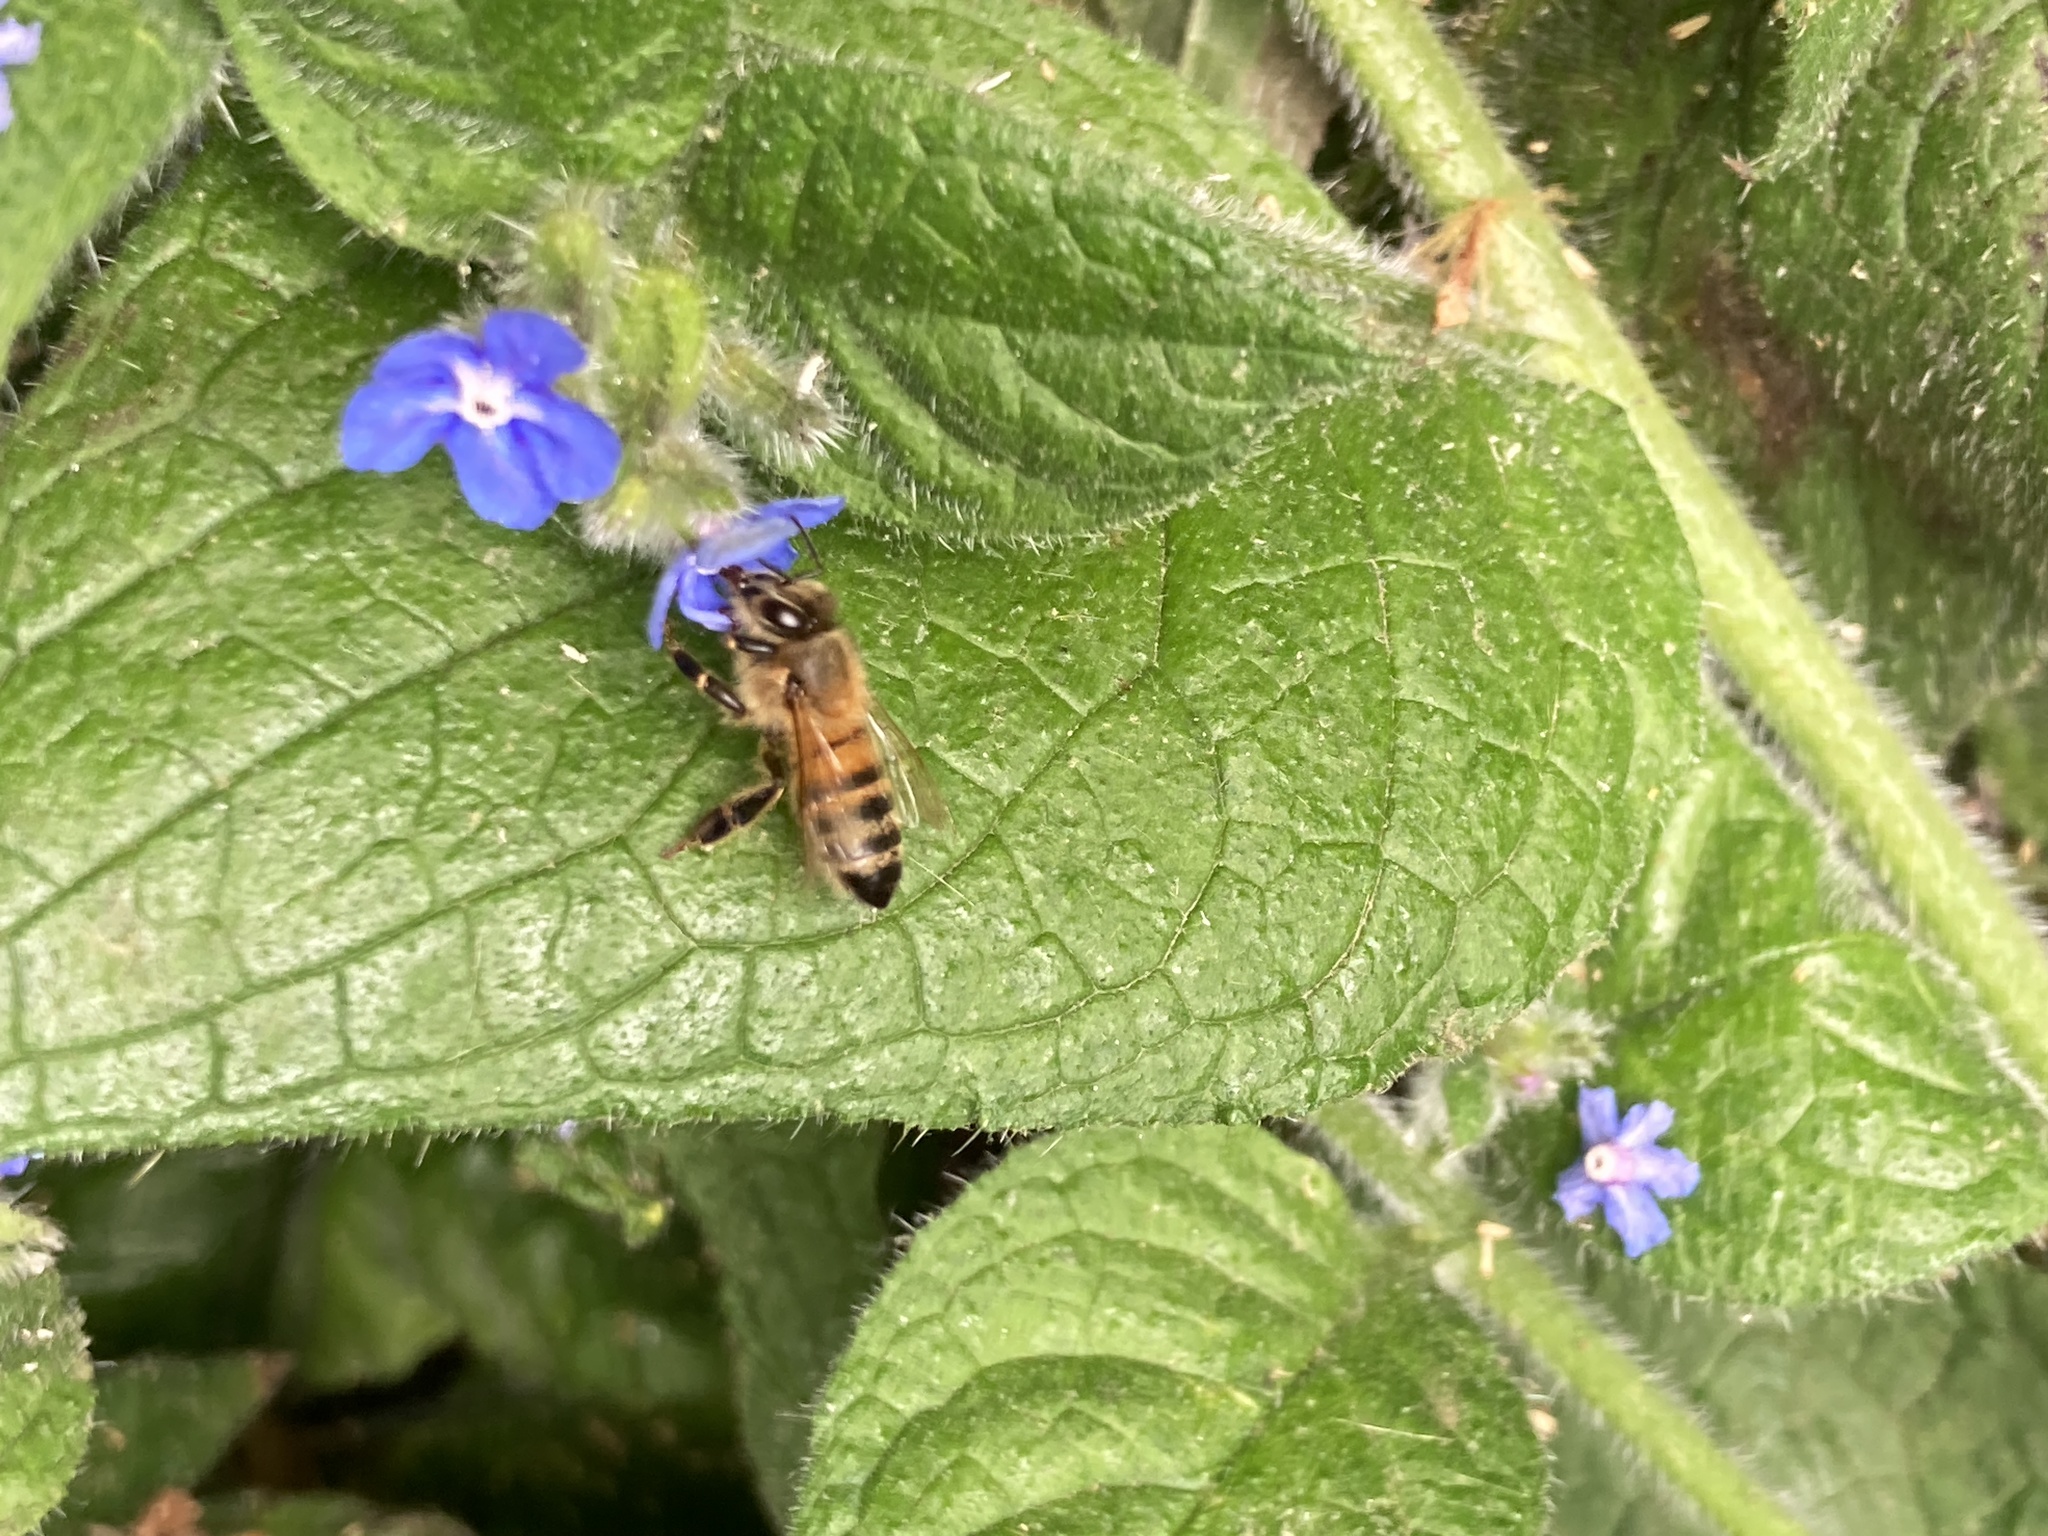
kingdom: Animalia
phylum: Arthropoda
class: Insecta
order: Hymenoptera
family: Apidae
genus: Apis
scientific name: Apis mellifera
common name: Honey bee
